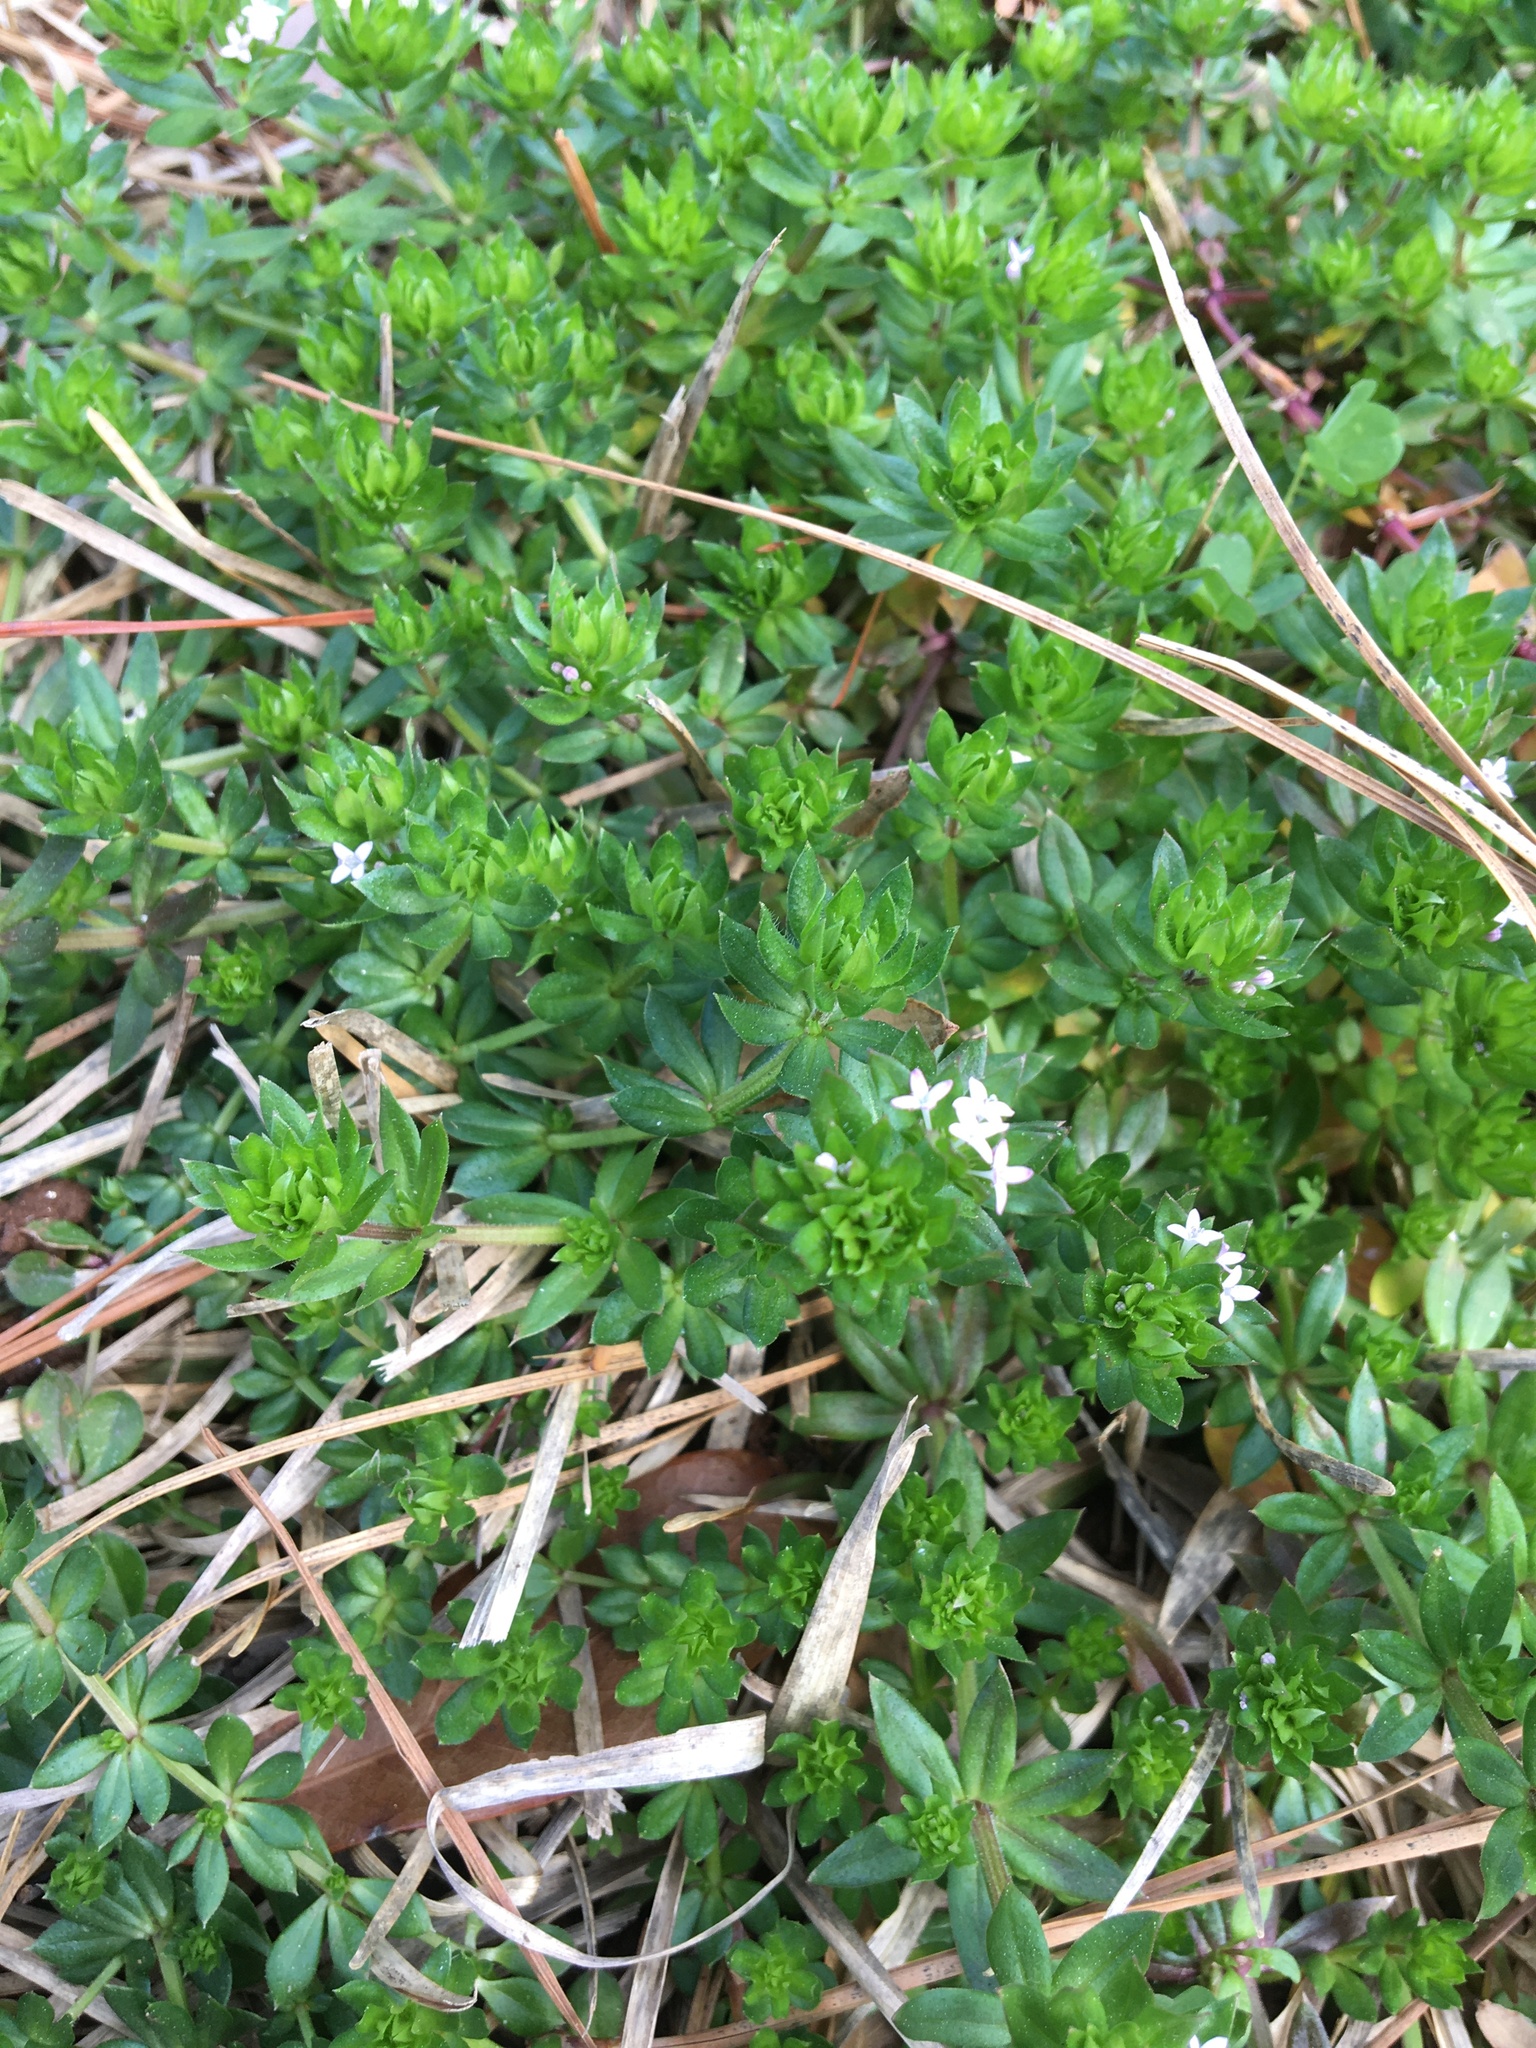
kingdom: Plantae
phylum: Tracheophyta
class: Magnoliopsida
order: Gentianales
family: Rubiaceae
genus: Sherardia
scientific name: Sherardia arvensis
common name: Field madder
